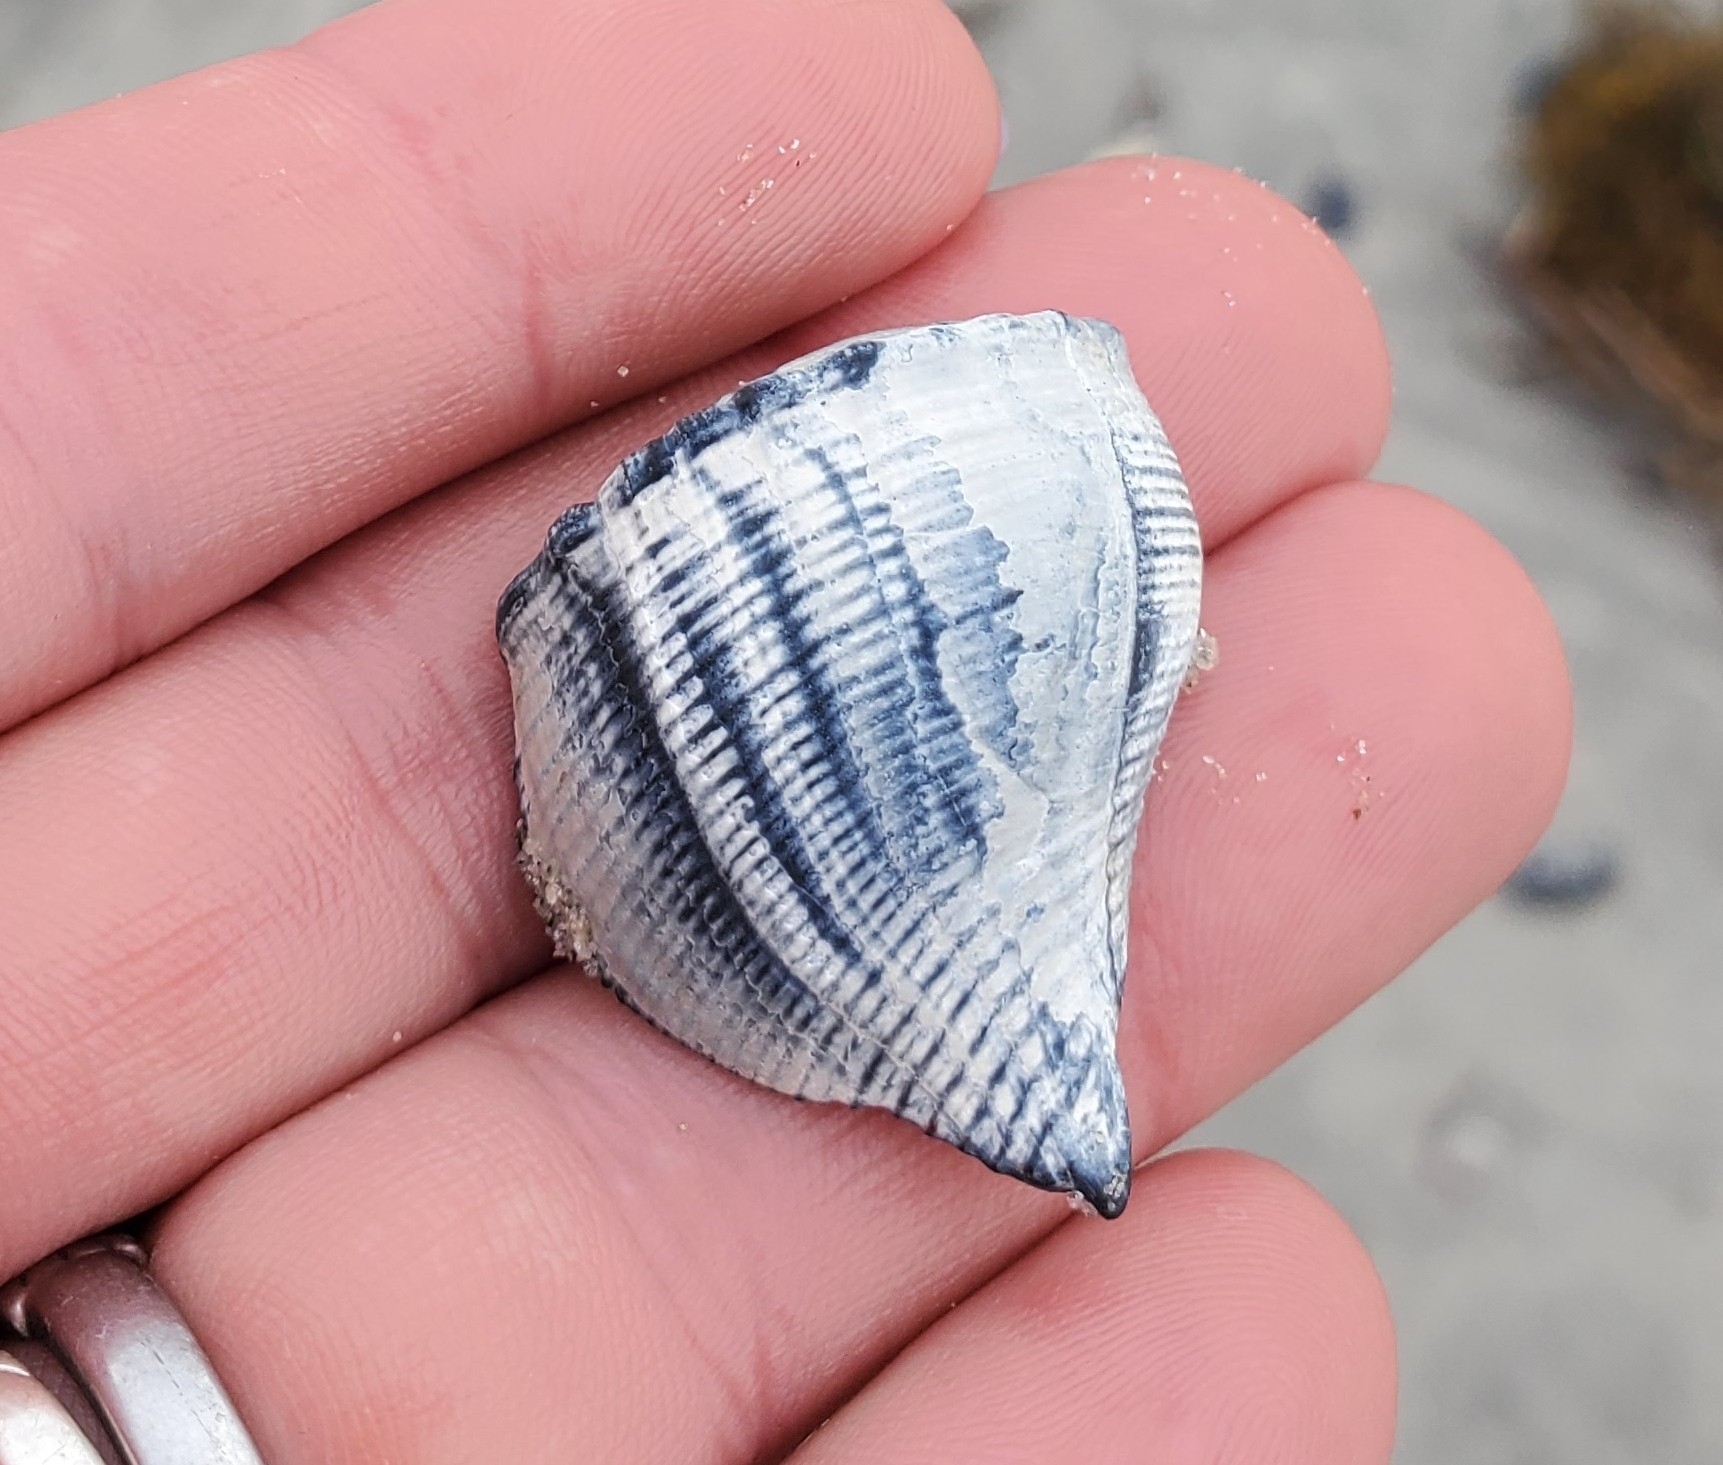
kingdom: Animalia
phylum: Mollusca
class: Gastropoda
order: Neogastropoda
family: Busyconidae
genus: Busycotypus
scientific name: Busycotypus canaliculatus
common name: Channeled whelk
